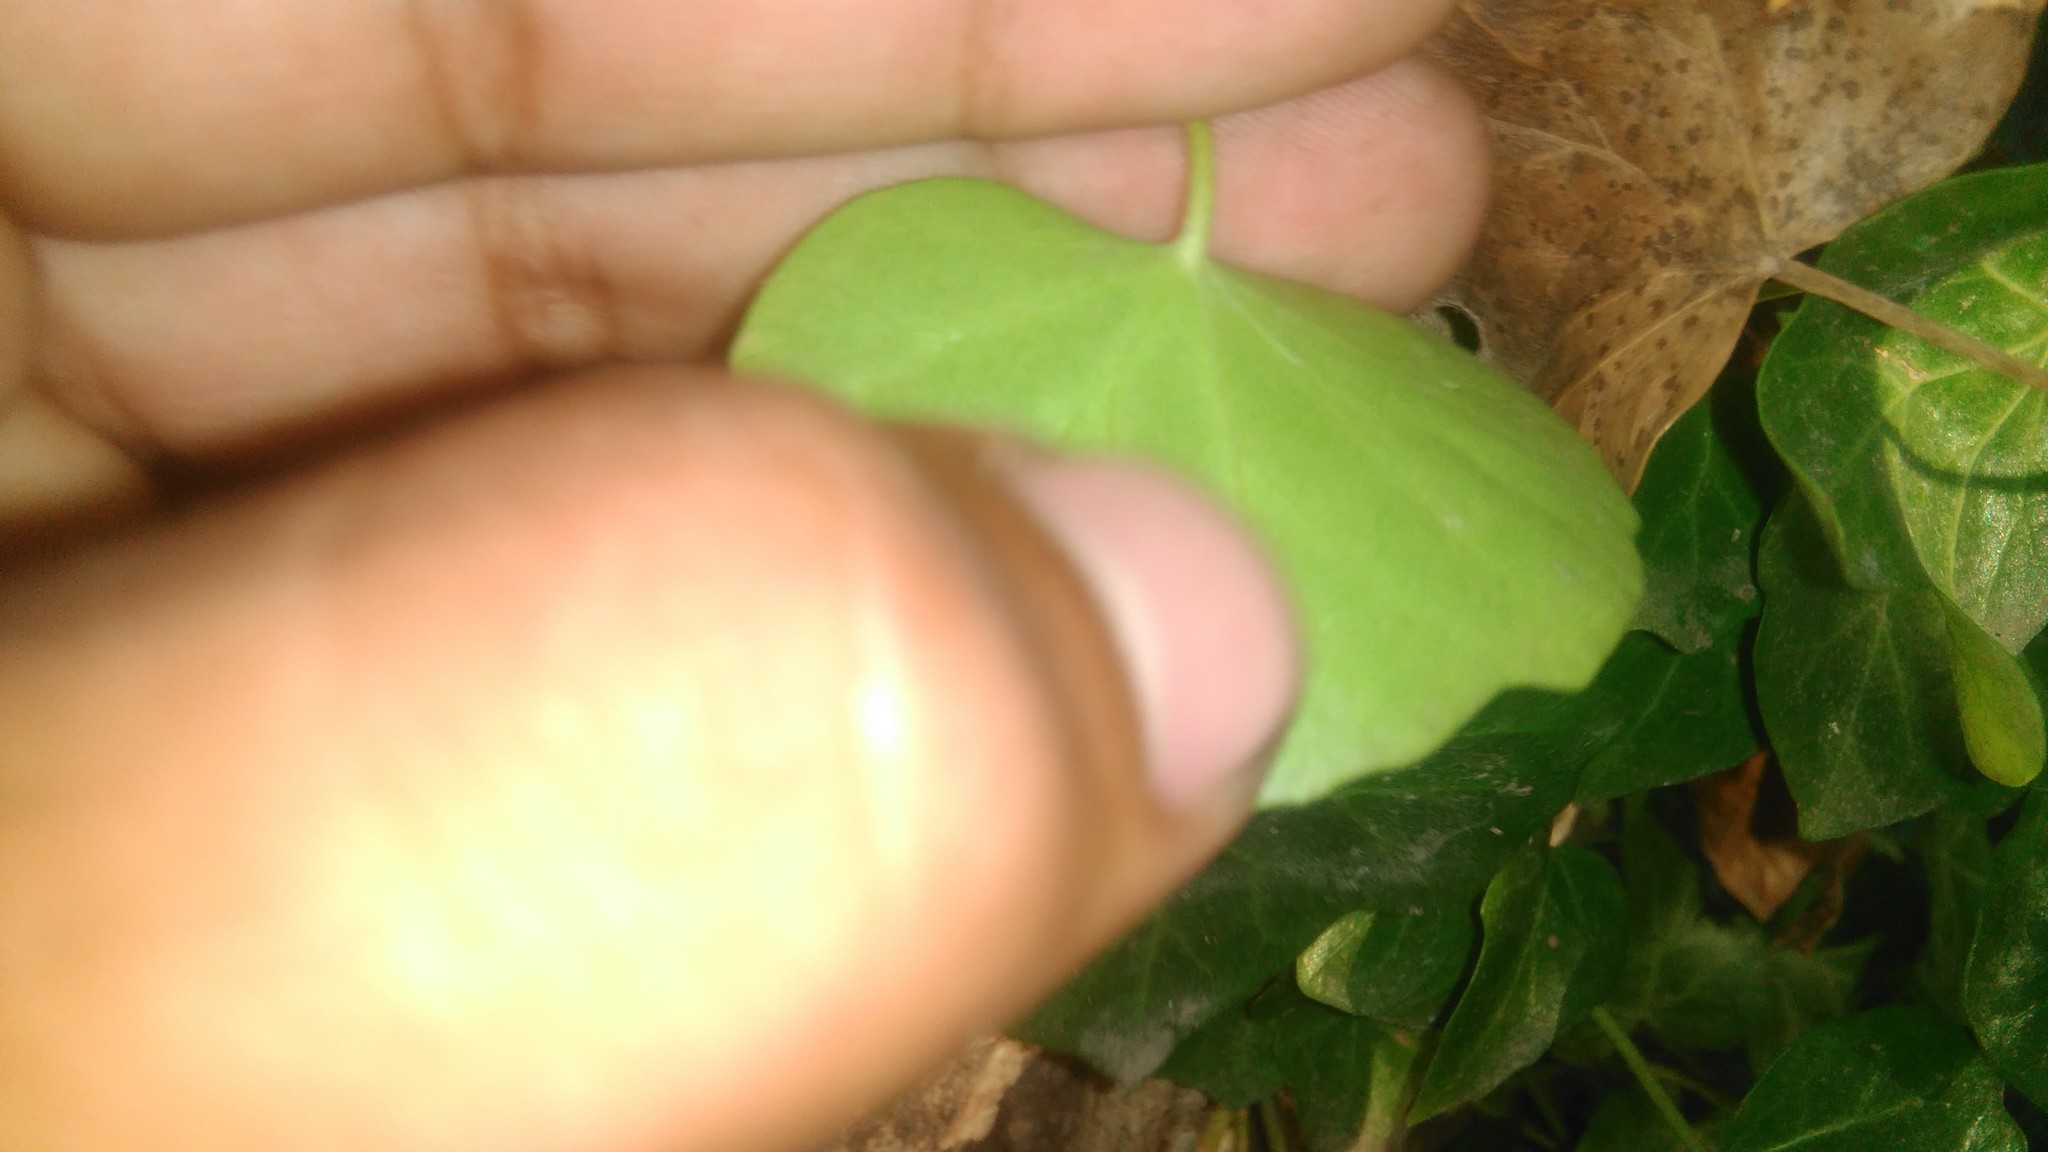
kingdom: Plantae
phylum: Tracheophyta
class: Magnoliopsida
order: Apiales
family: Araliaceae
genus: Hedera
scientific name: Hedera helix
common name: Ivy
